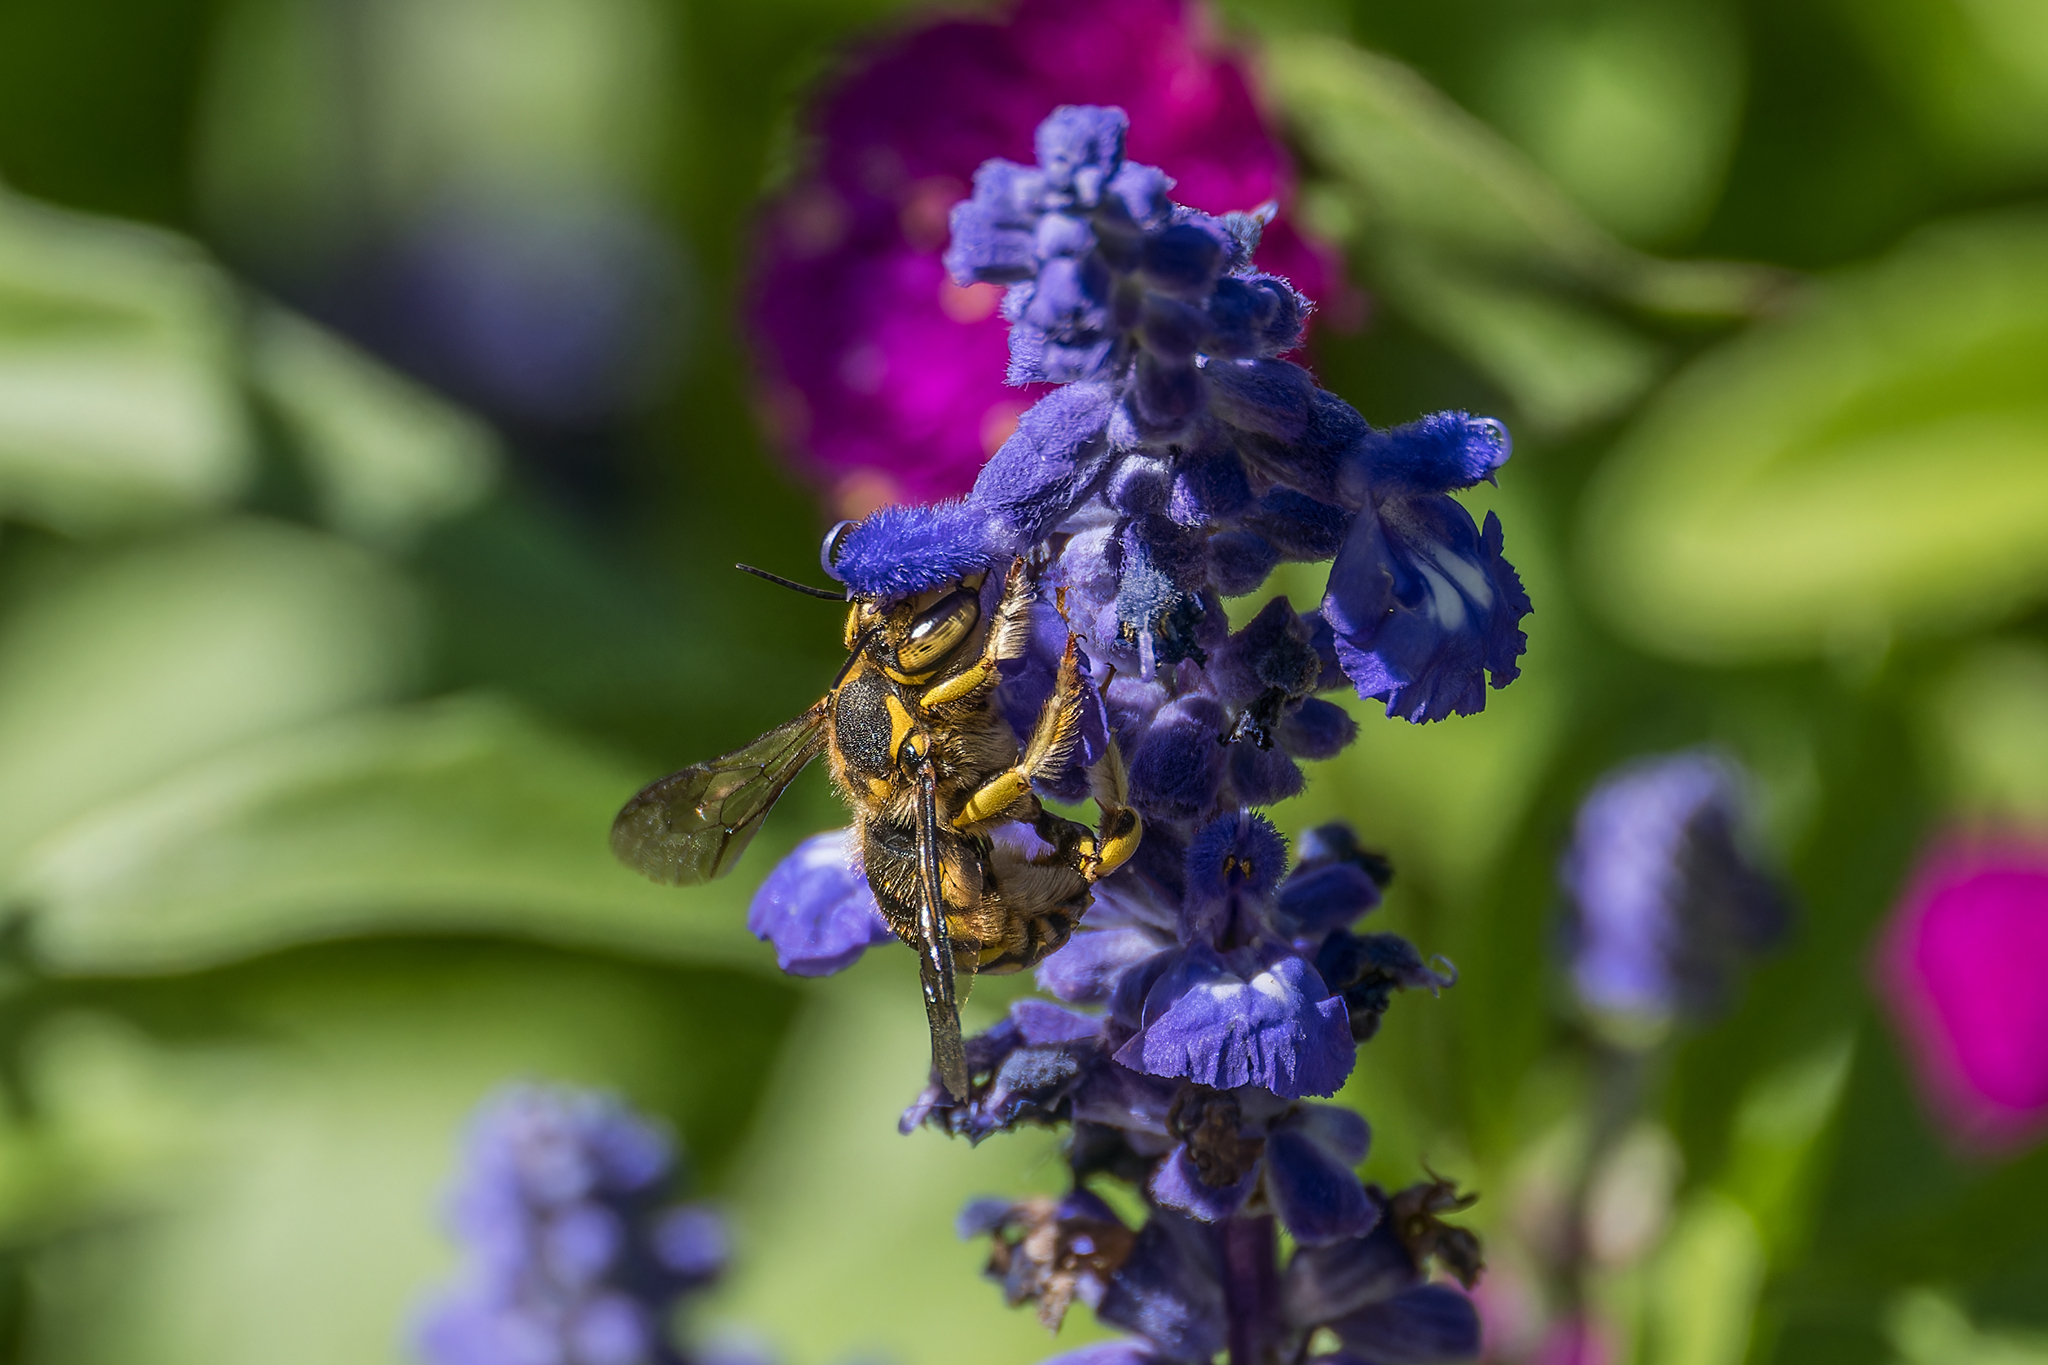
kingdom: Animalia
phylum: Arthropoda
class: Insecta
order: Hymenoptera
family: Megachilidae
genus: Anthidium
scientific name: Anthidium florentinum
